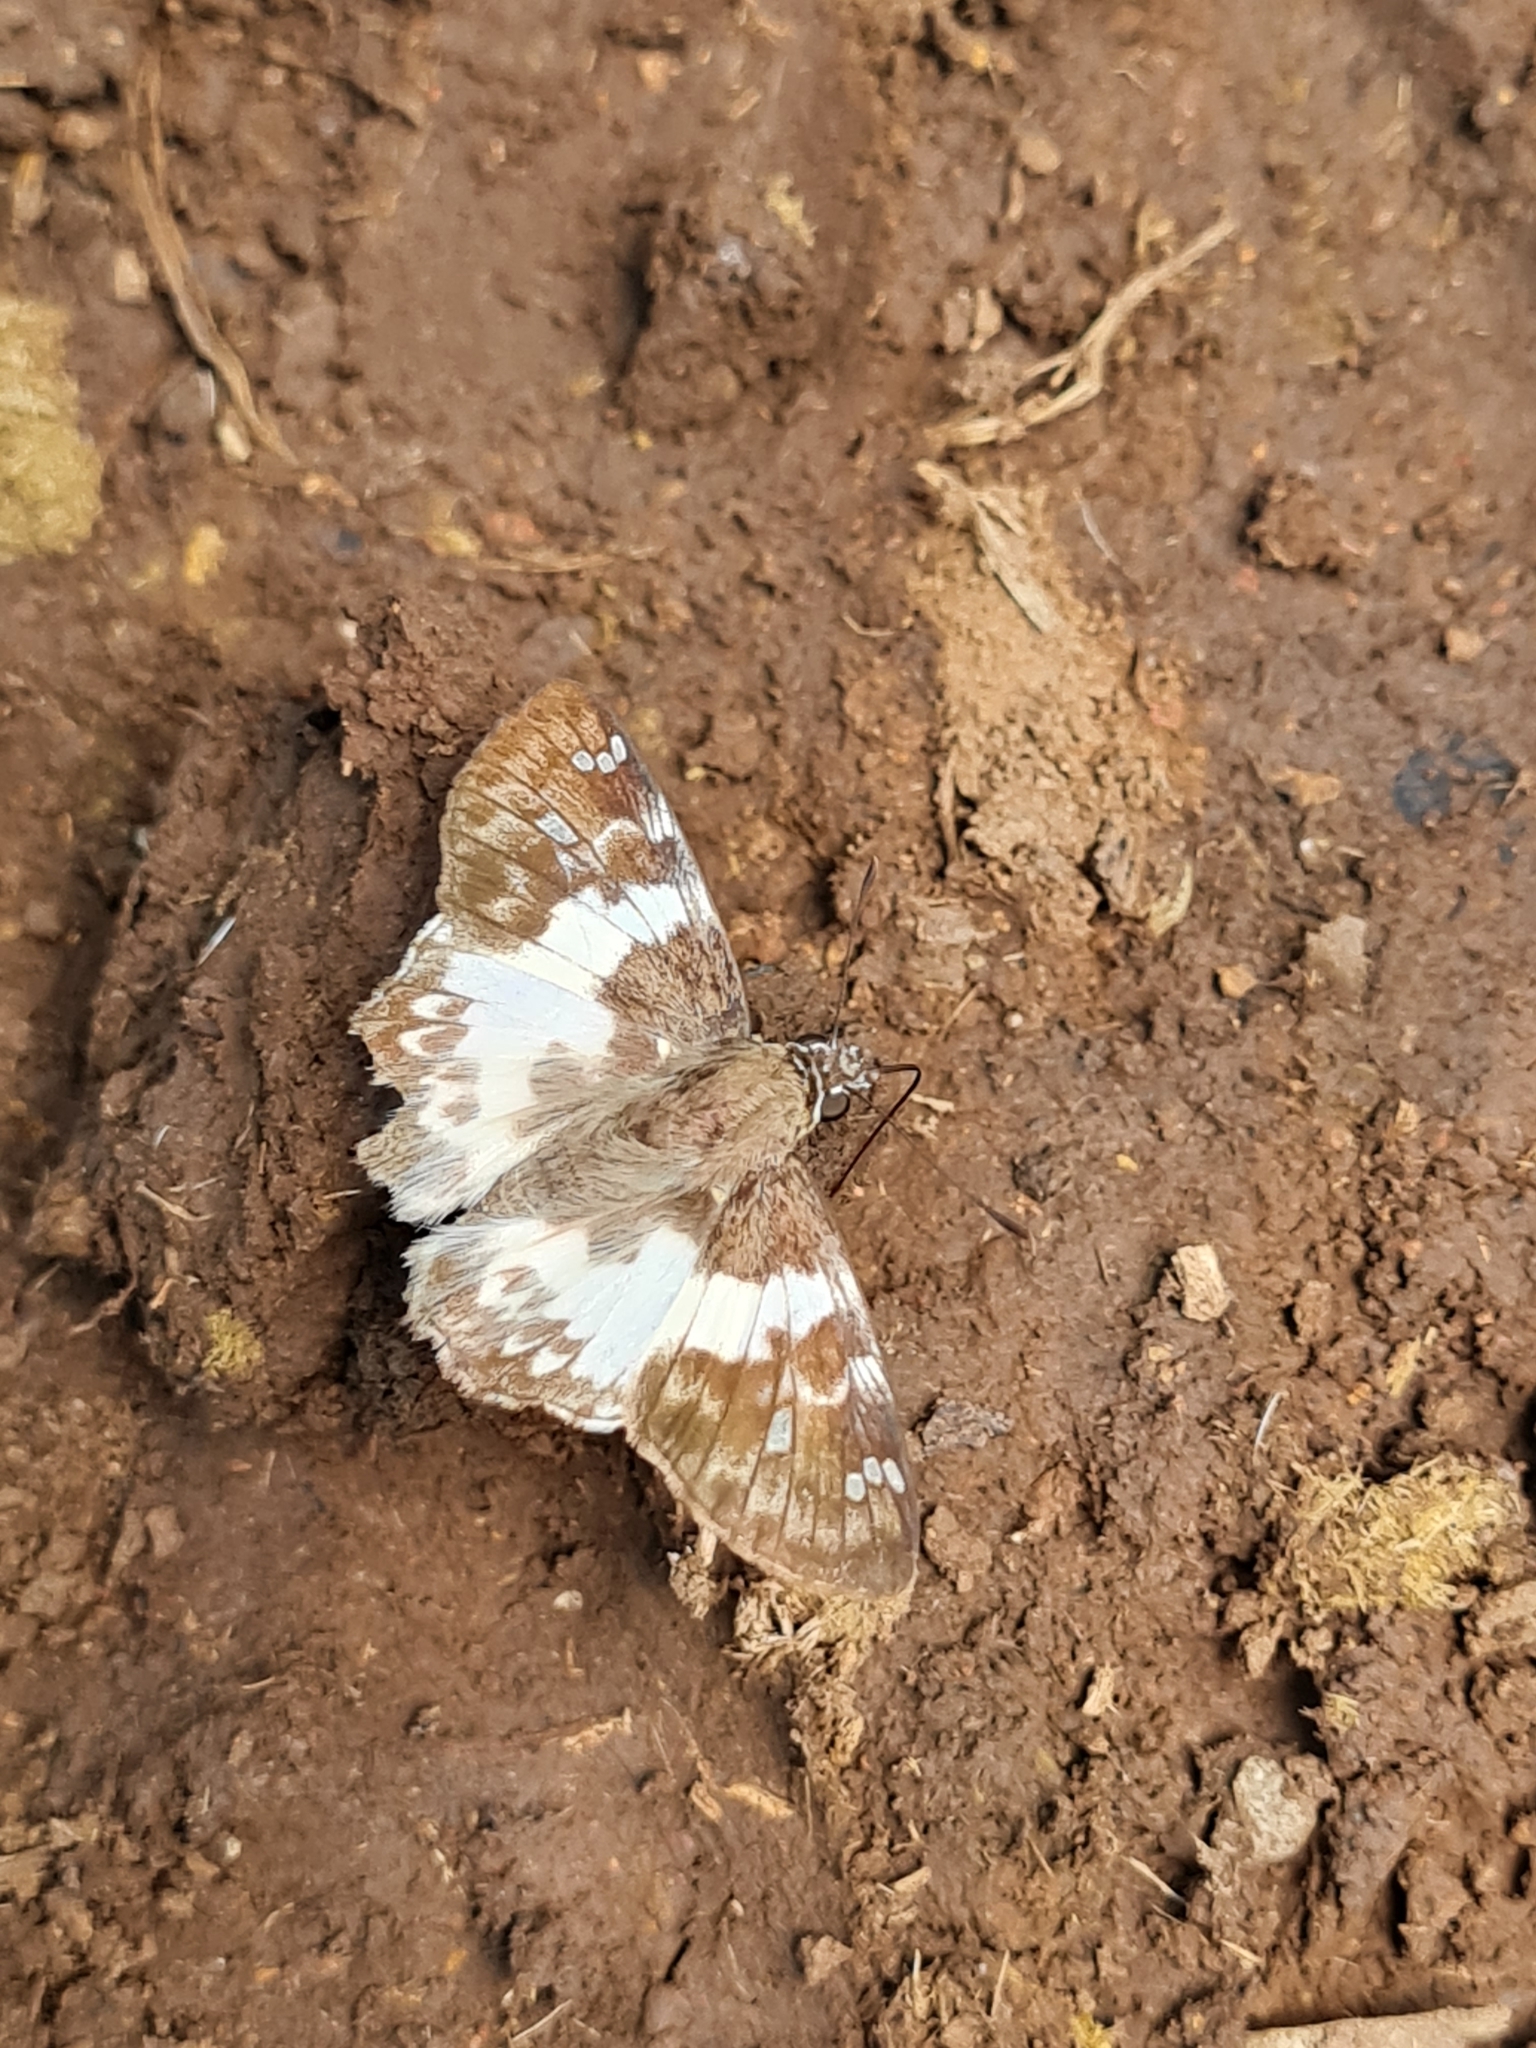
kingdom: Animalia
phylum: Arthropoda
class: Insecta
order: Lepidoptera
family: Hesperiidae
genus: Polyctor
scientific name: Polyctor polyctor
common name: Polyctor tufted-skipper
